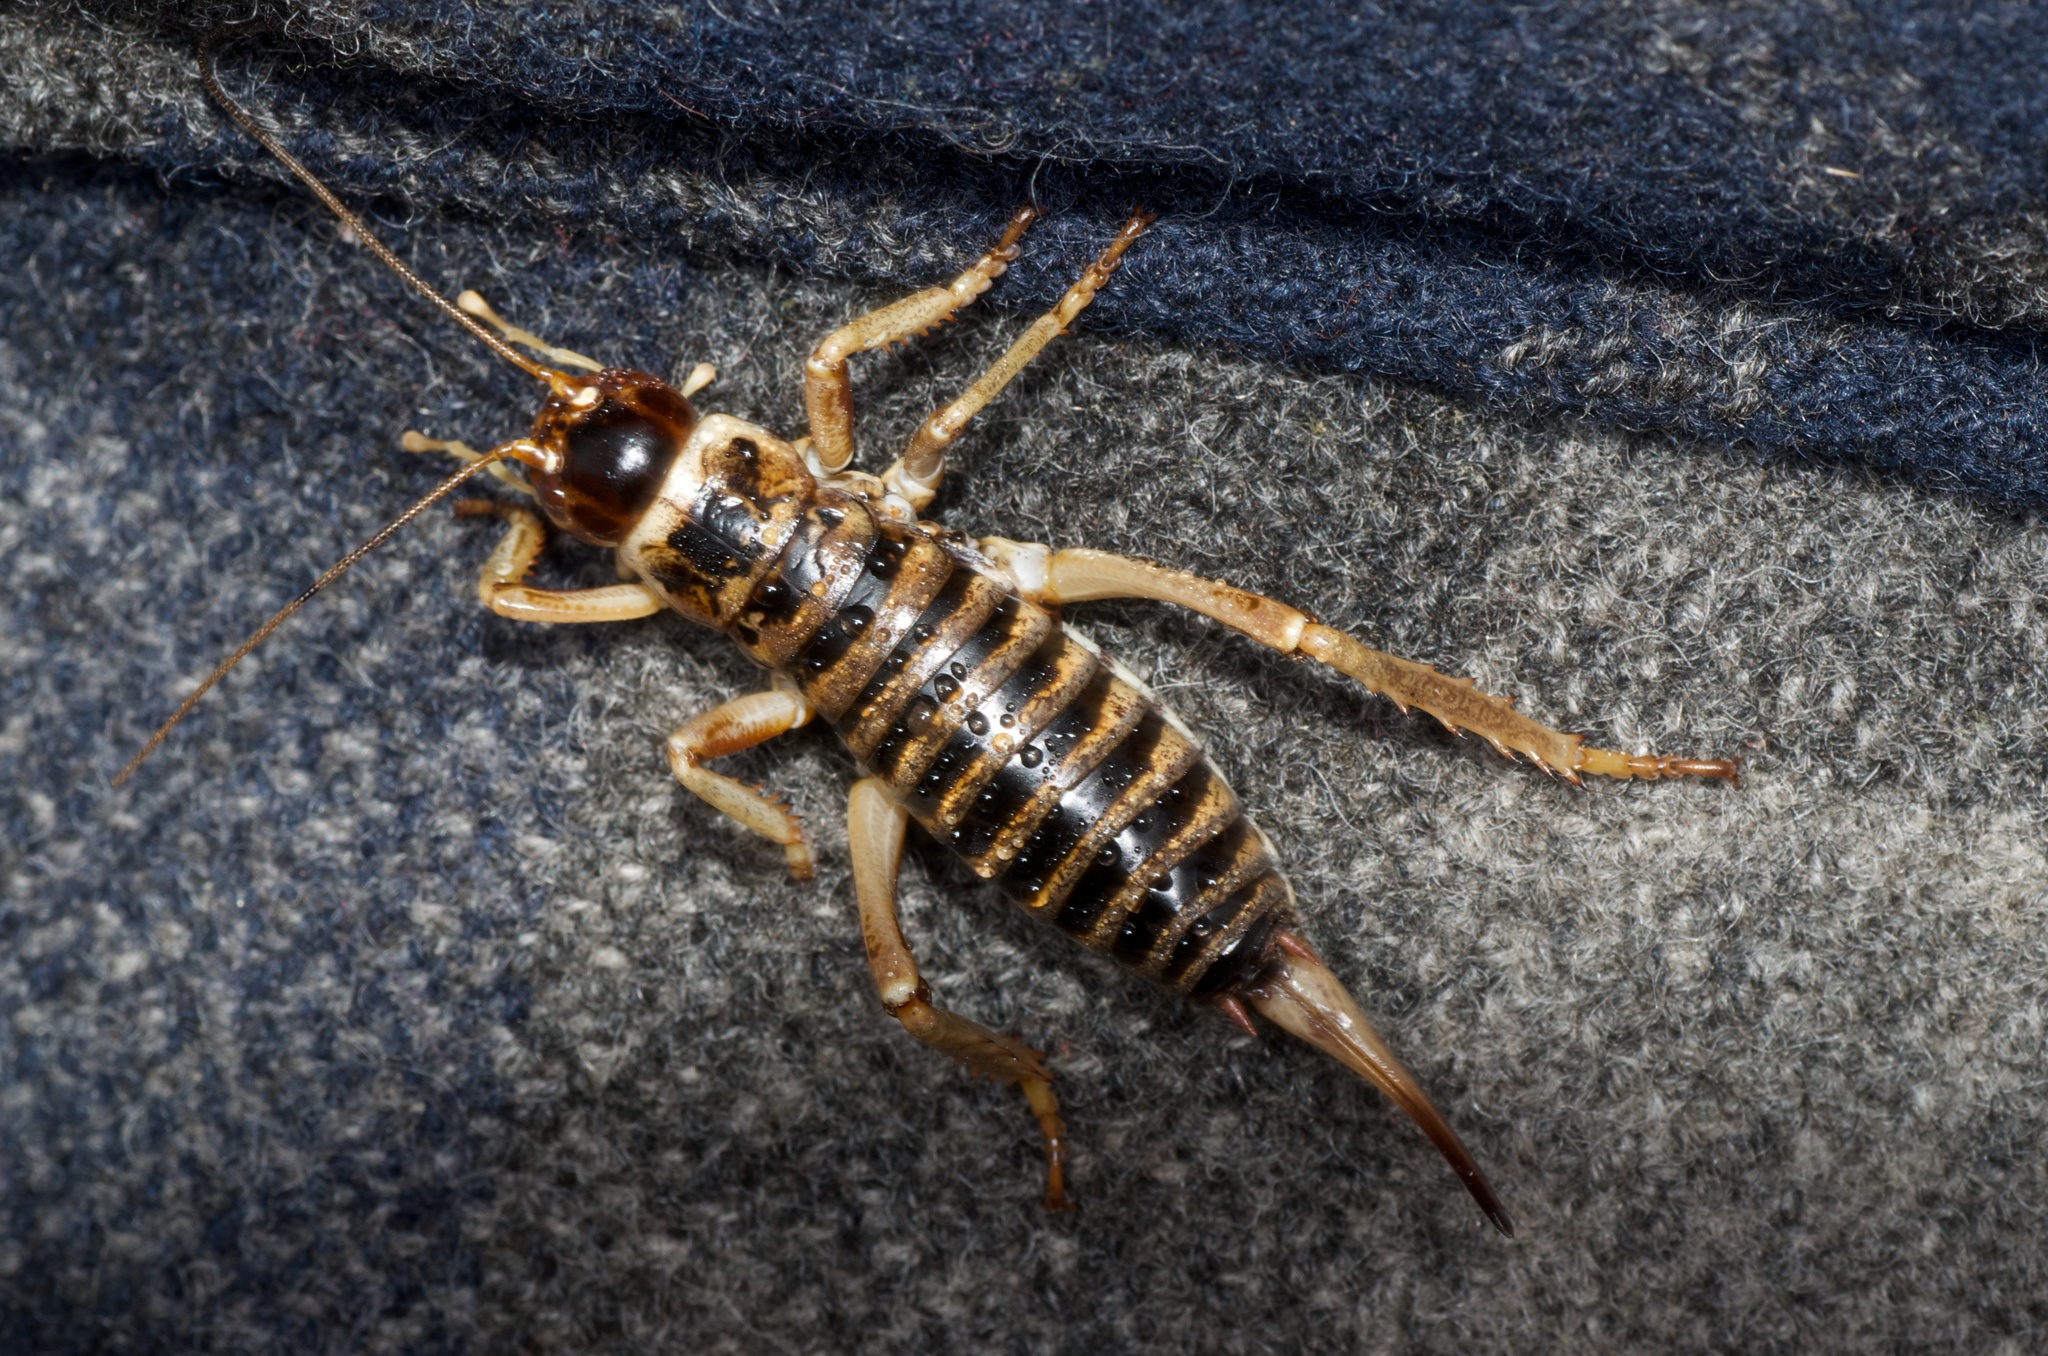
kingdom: Animalia
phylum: Arthropoda
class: Insecta
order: Orthoptera
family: Anostostomatidae
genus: Hemideina
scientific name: Hemideina maori
